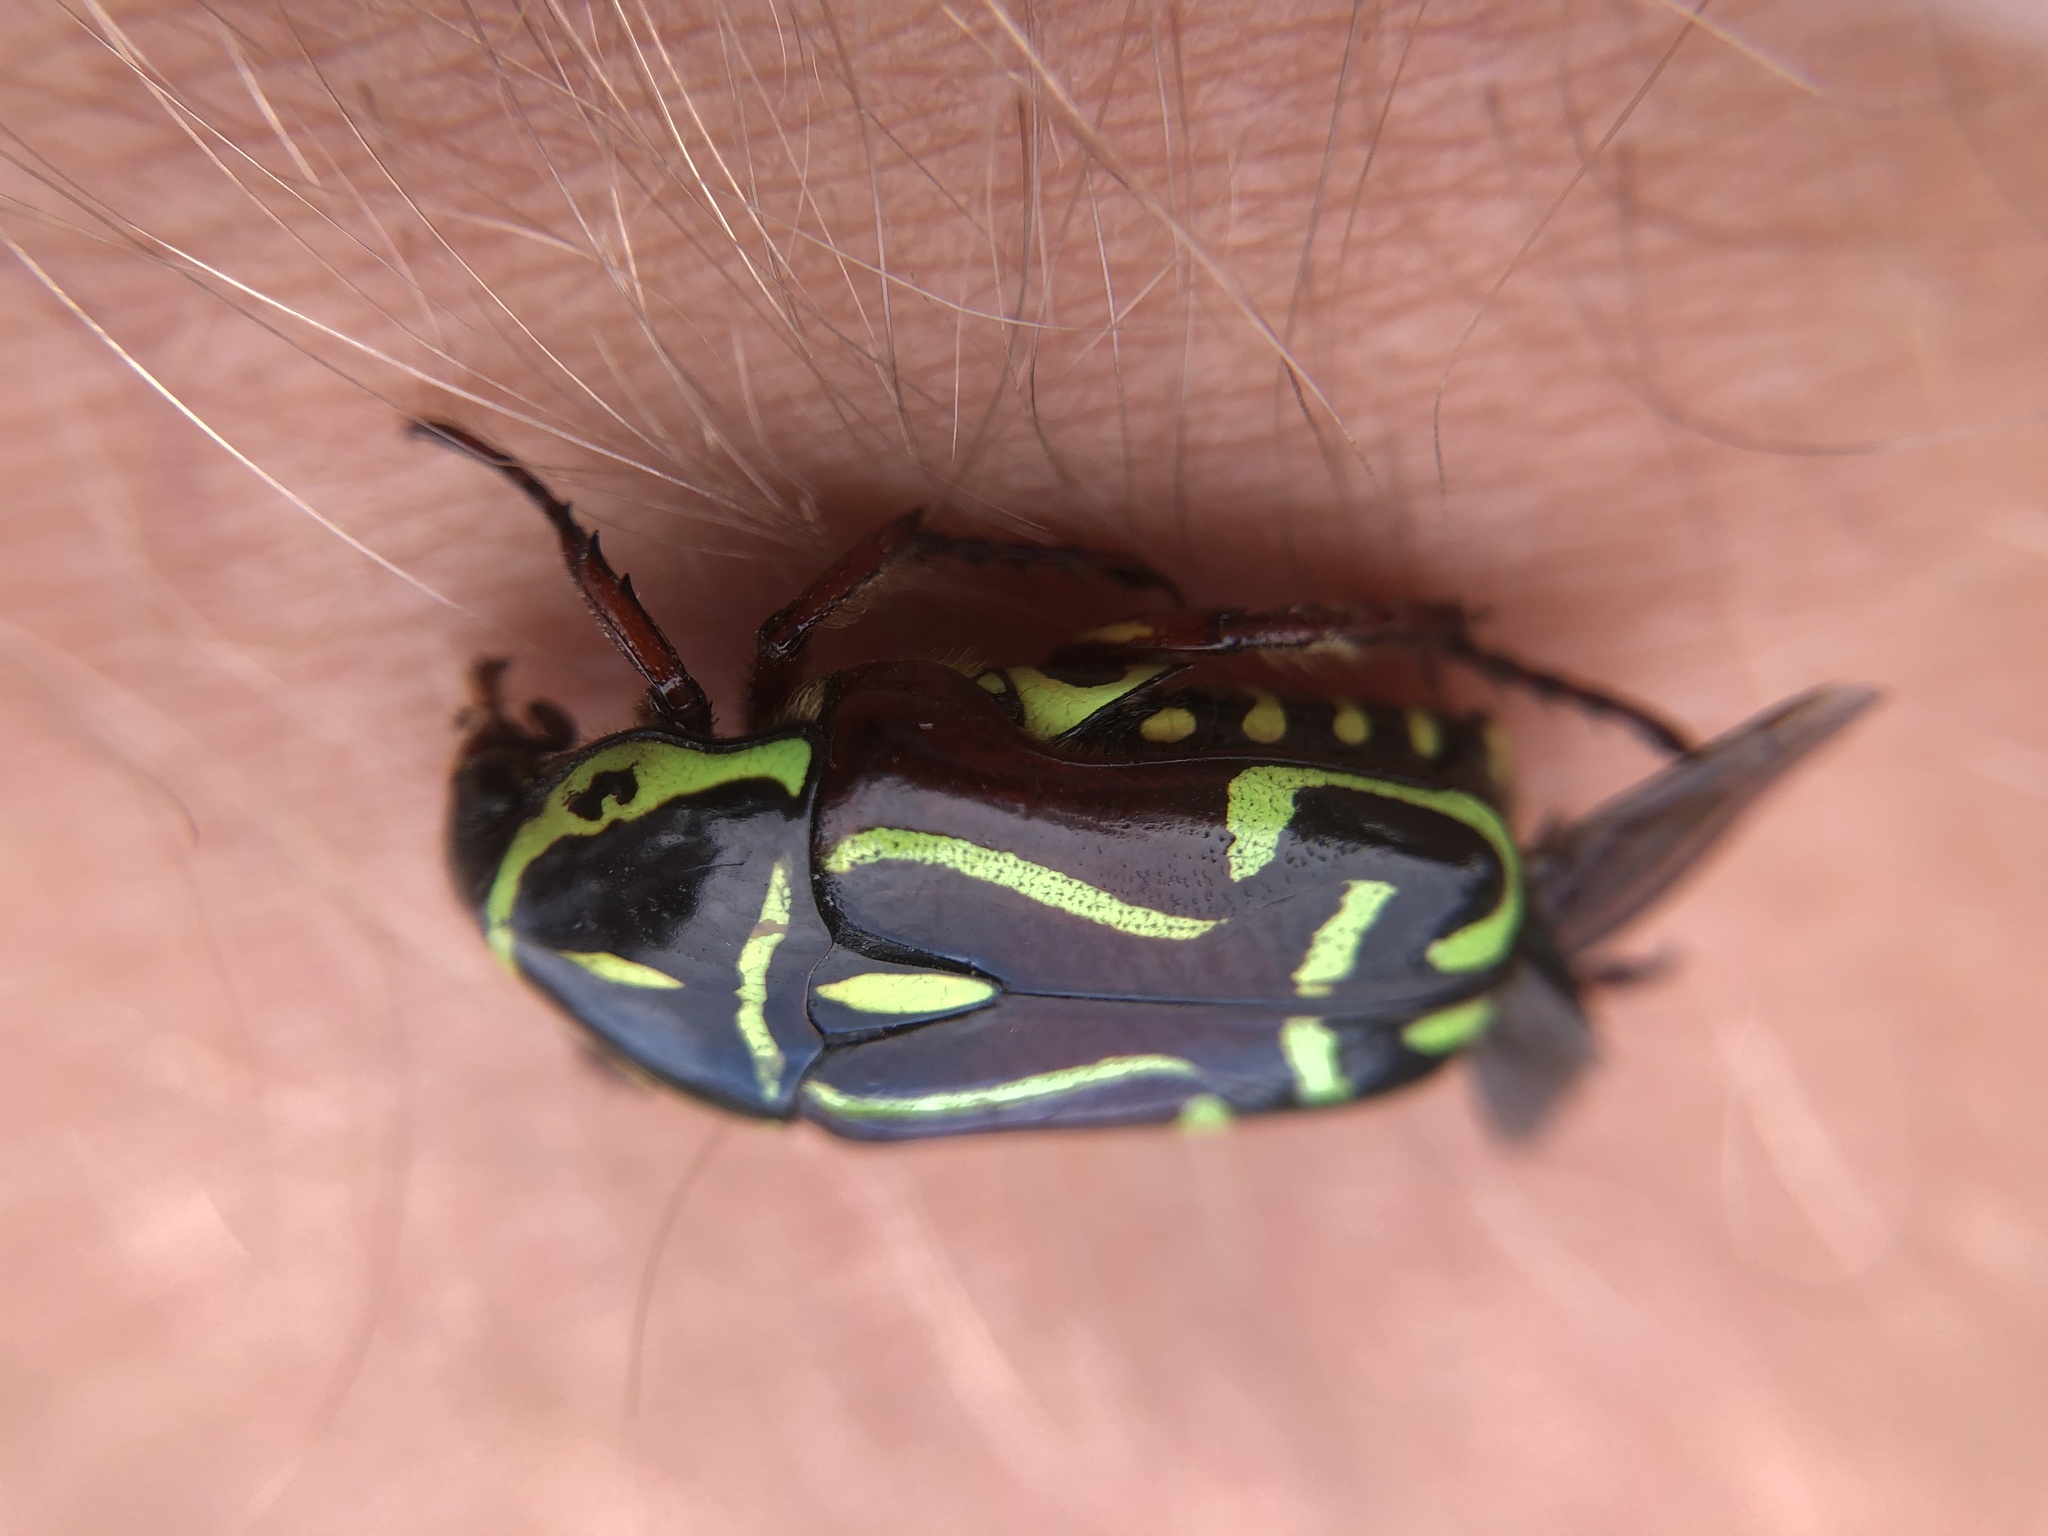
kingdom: Animalia
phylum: Arthropoda
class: Insecta
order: Coleoptera
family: Scarabaeidae
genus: Eupoecila
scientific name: Eupoecila australasiae
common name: Fiddler beetle
